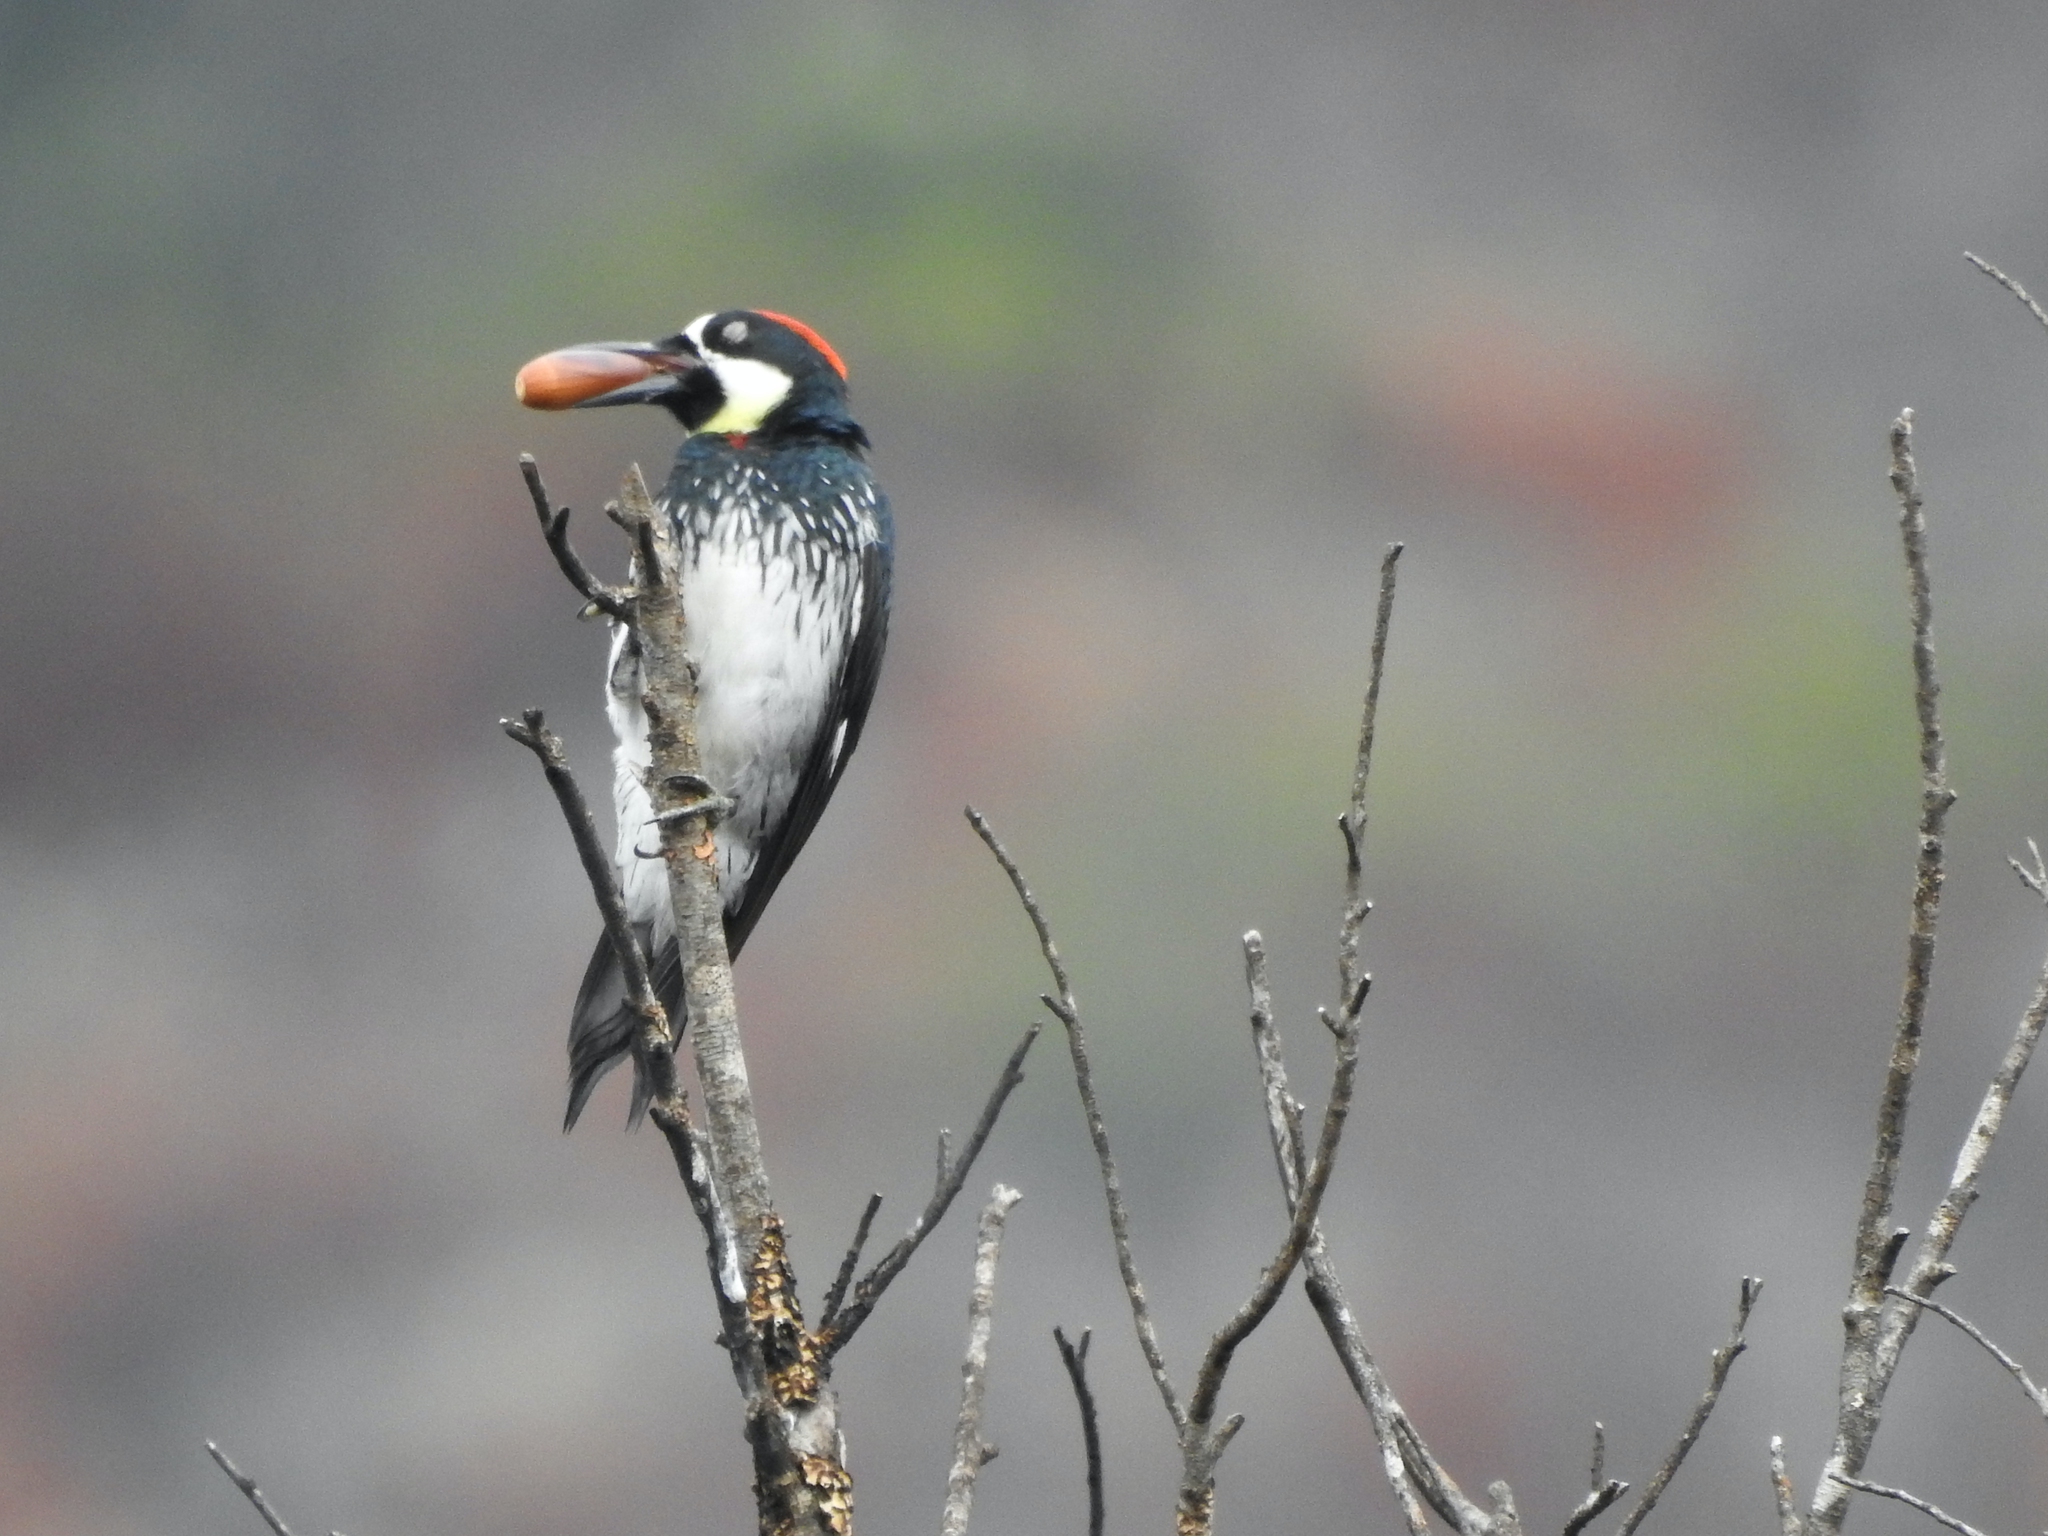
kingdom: Animalia
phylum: Chordata
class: Aves
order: Piciformes
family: Picidae
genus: Melanerpes
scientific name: Melanerpes formicivorus
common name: Acorn woodpecker
